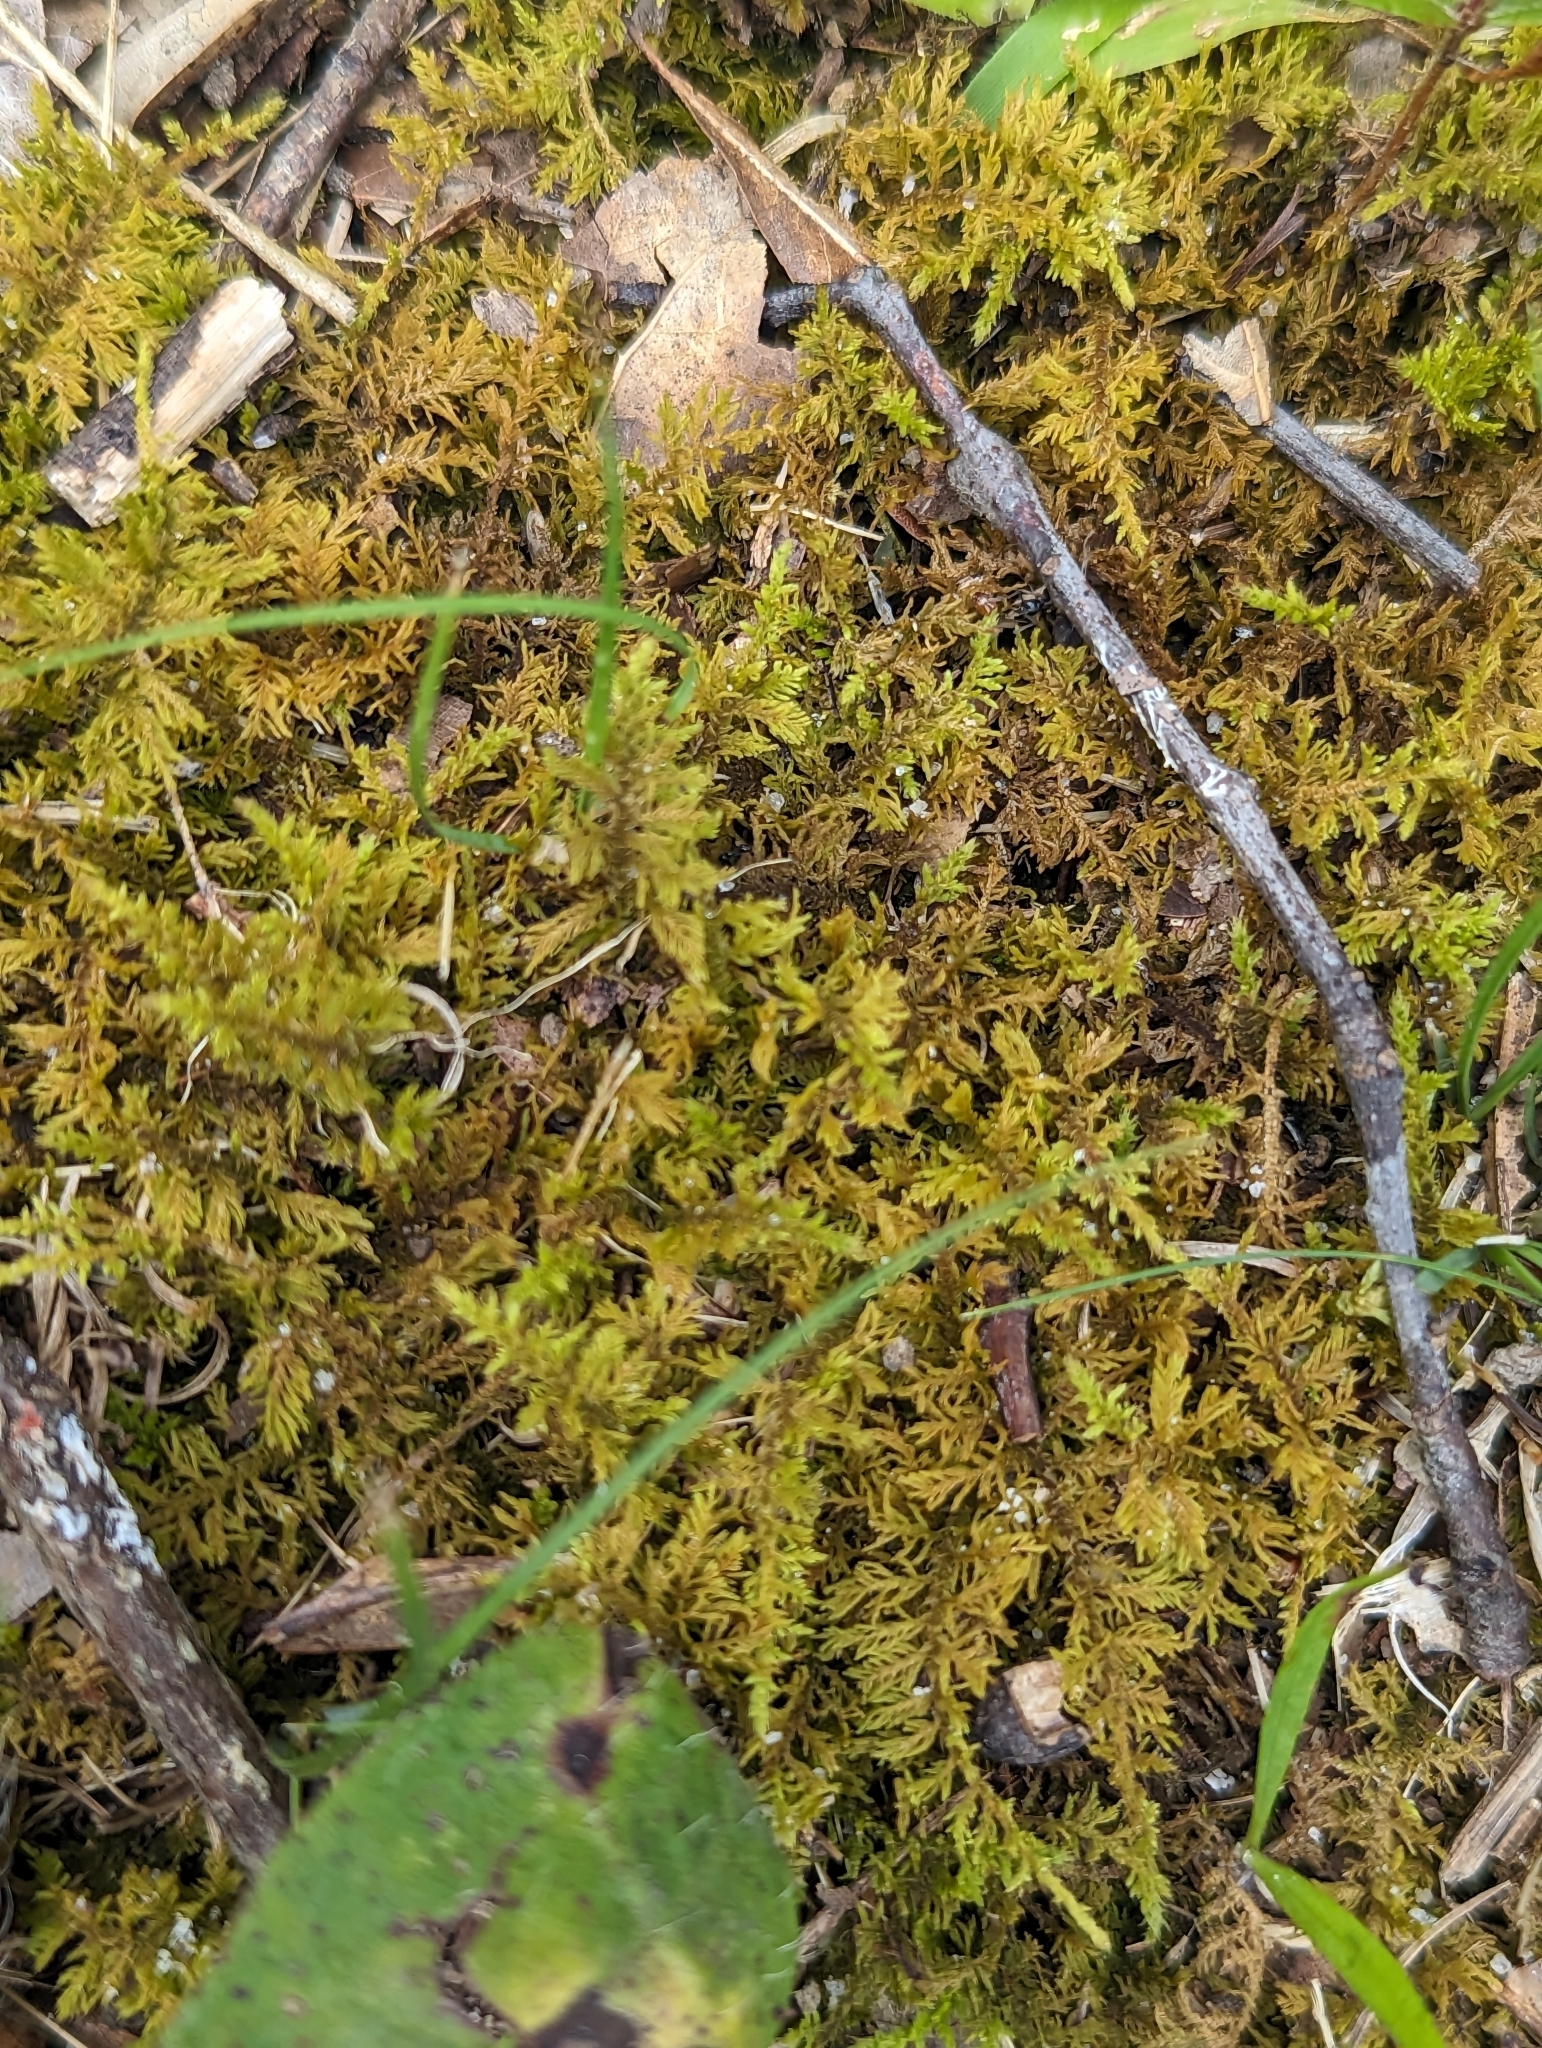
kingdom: Plantae
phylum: Bryophyta
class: Bryopsida
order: Hypnales
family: Thuidiaceae
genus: Thuidium
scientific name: Thuidium delicatulum
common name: Delicate fern moss
